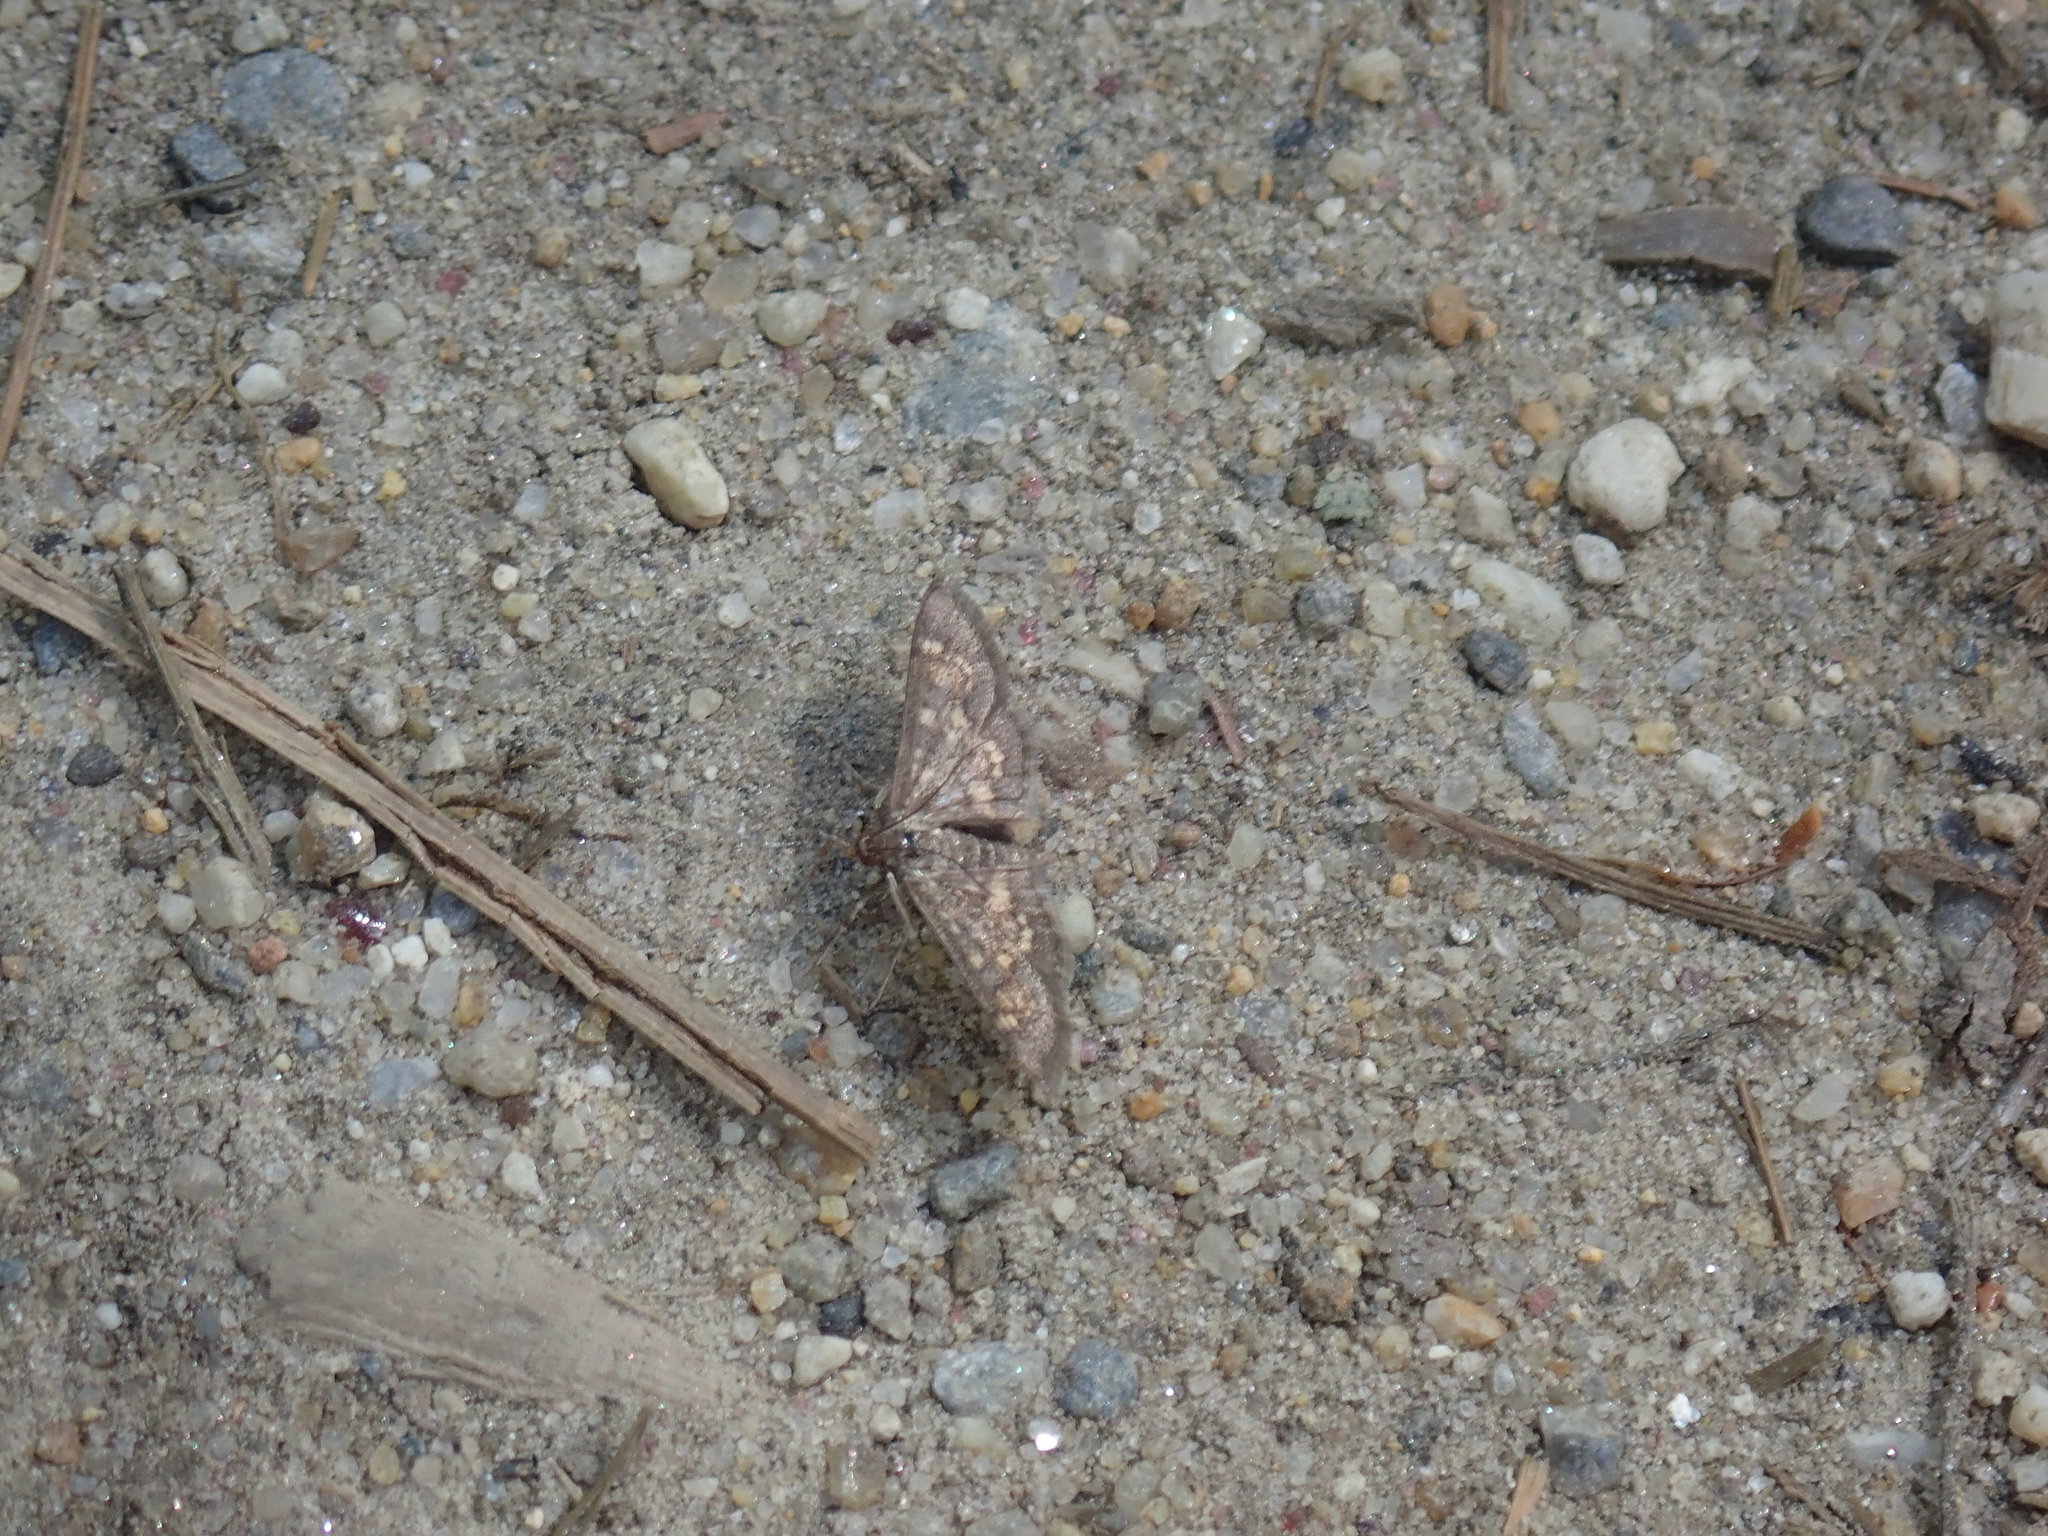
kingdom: Animalia
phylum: Arthropoda
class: Insecta
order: Lepidoptera
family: Crambidae
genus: Epipagis
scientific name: Epipagis adipaloides
